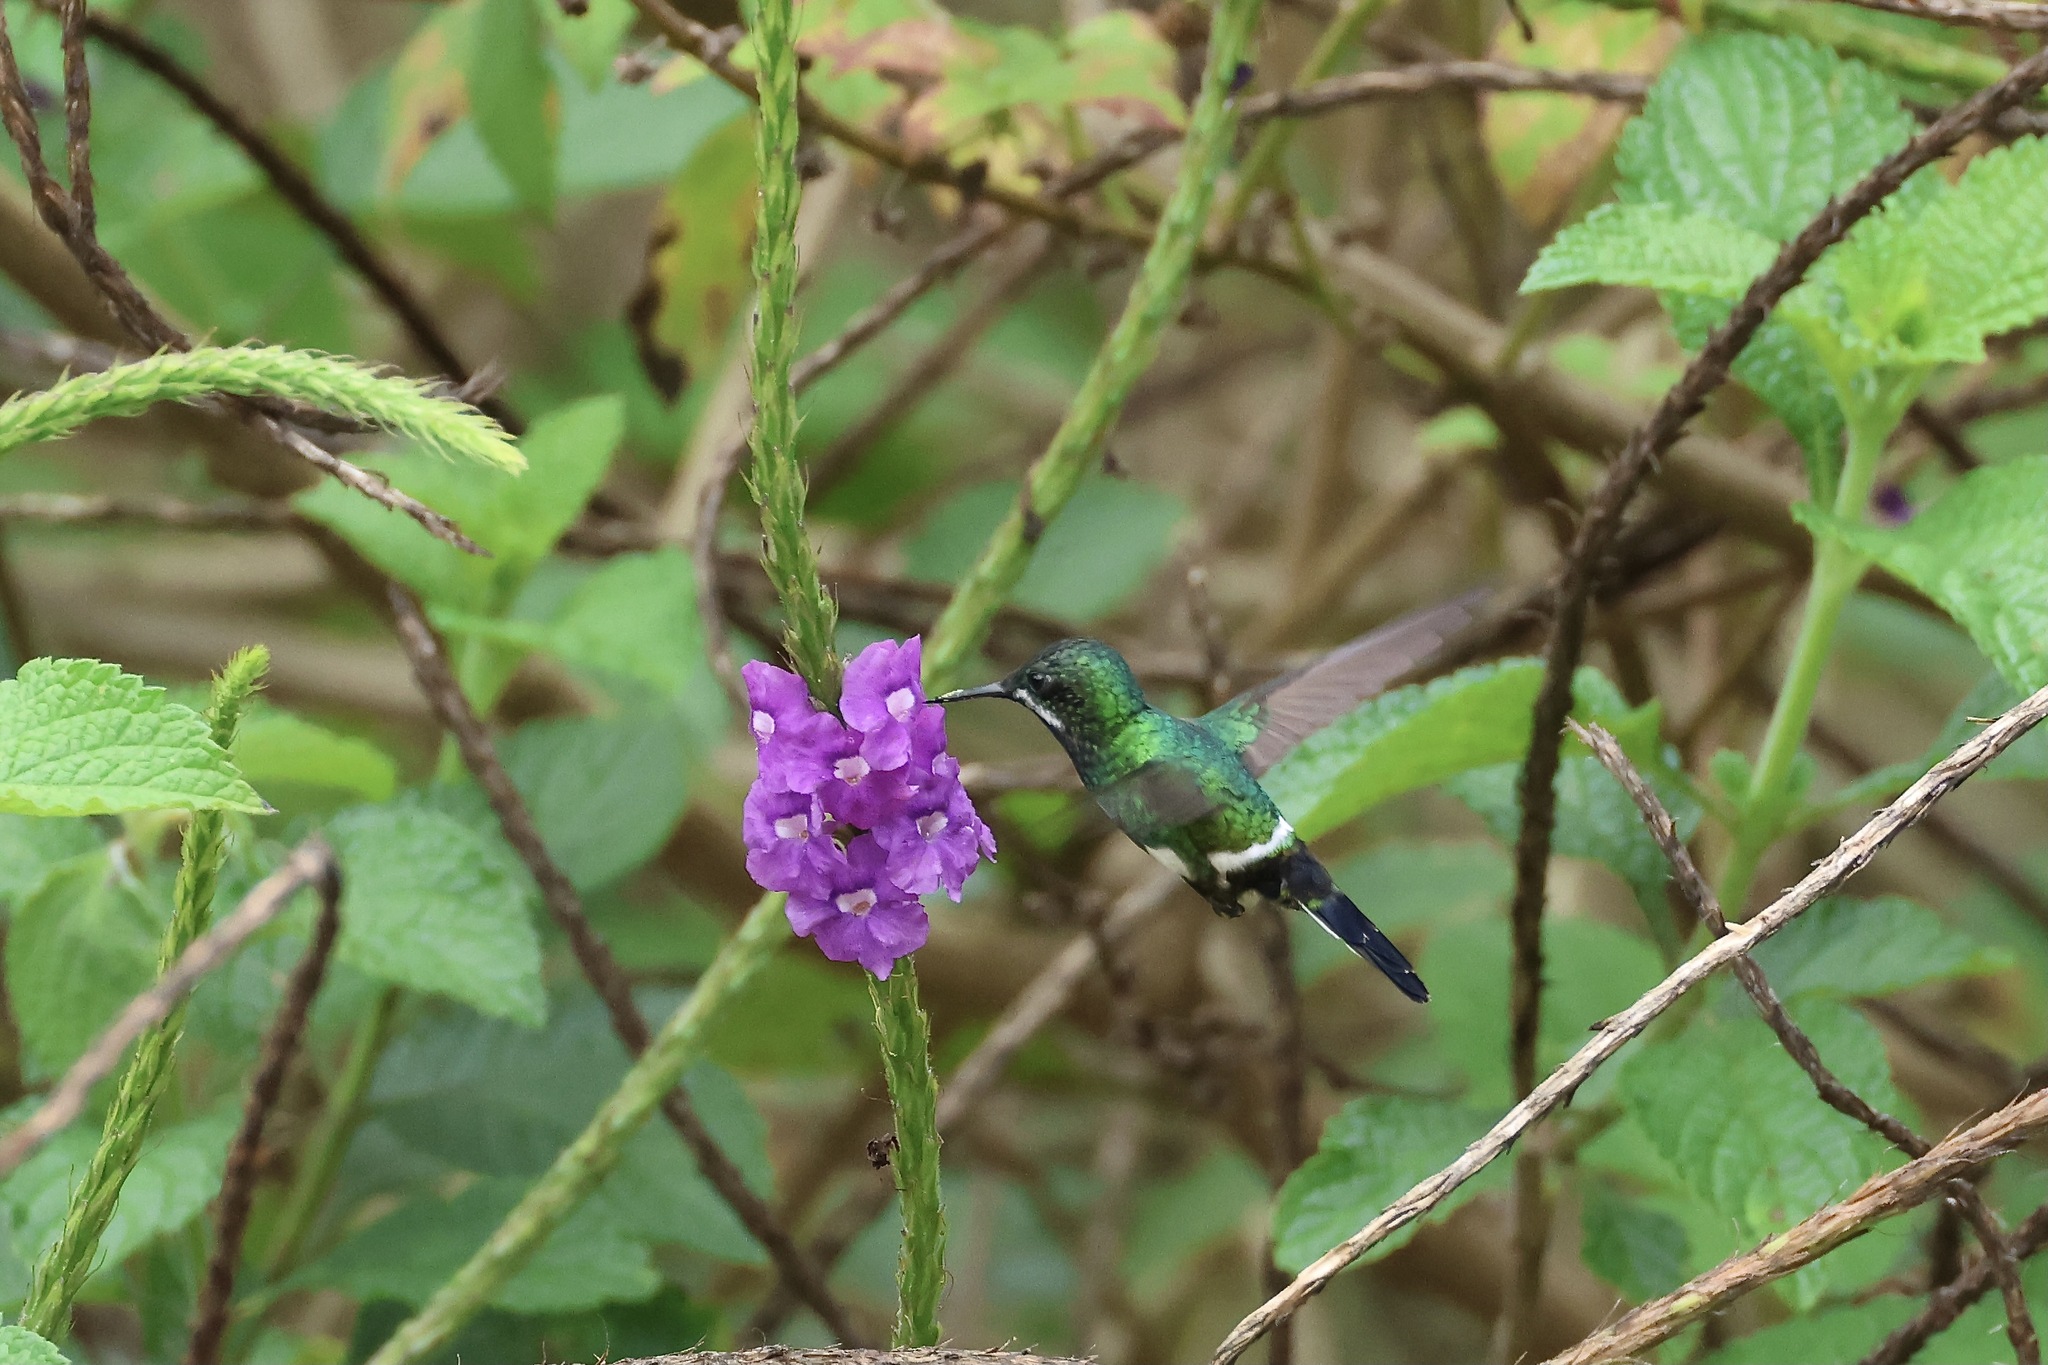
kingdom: Animalia
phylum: Chordata
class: Aves
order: Apodiformes
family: Trochilidae
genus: Discosura
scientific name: Discosura conversii
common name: Green thorntail
